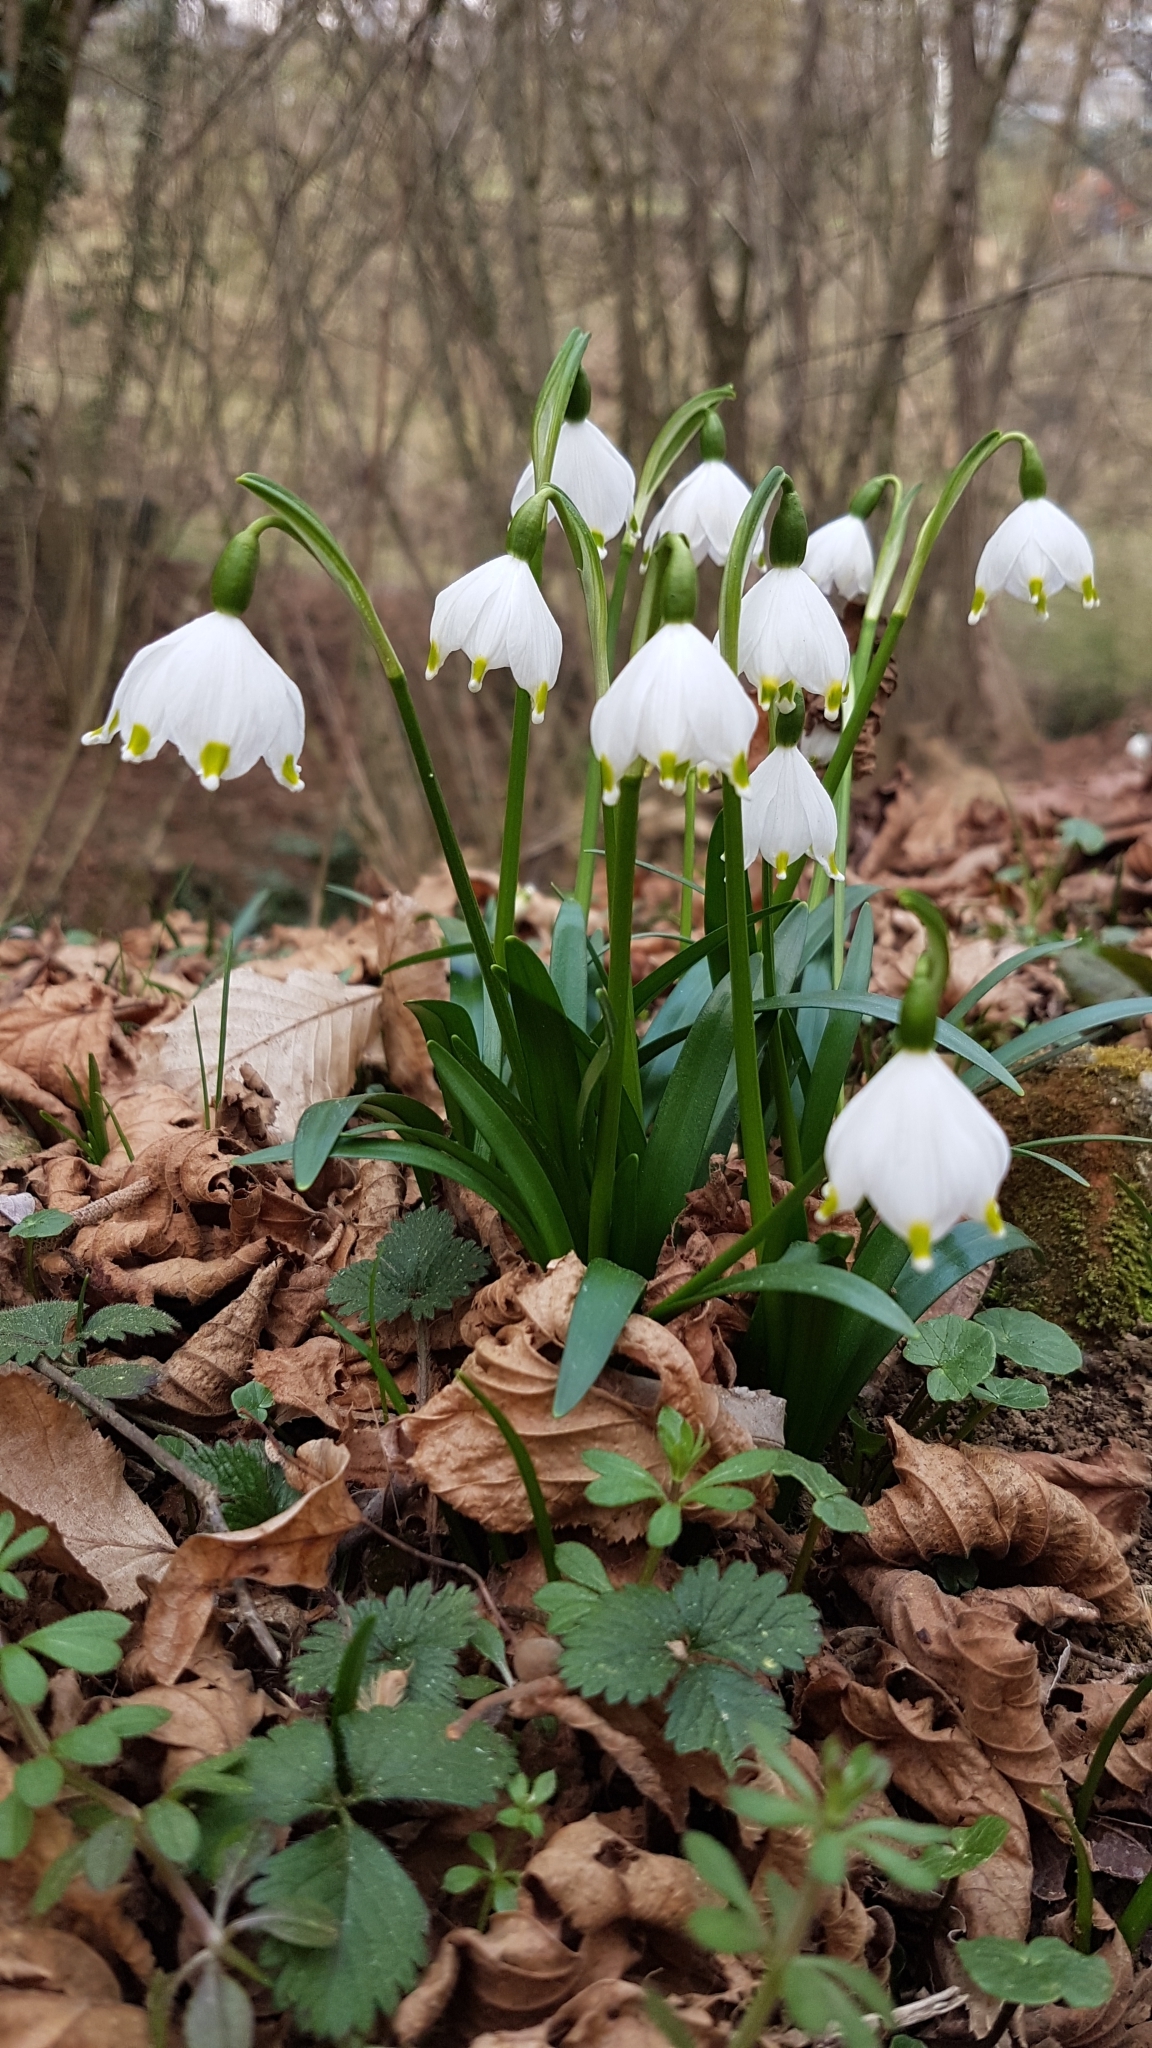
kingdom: Plantae
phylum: Tracheophyta
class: Liliopsida
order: Asparagales
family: Amaryllidaceae
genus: Leucojum
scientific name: Leucojum vernum
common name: Spring snowflake
